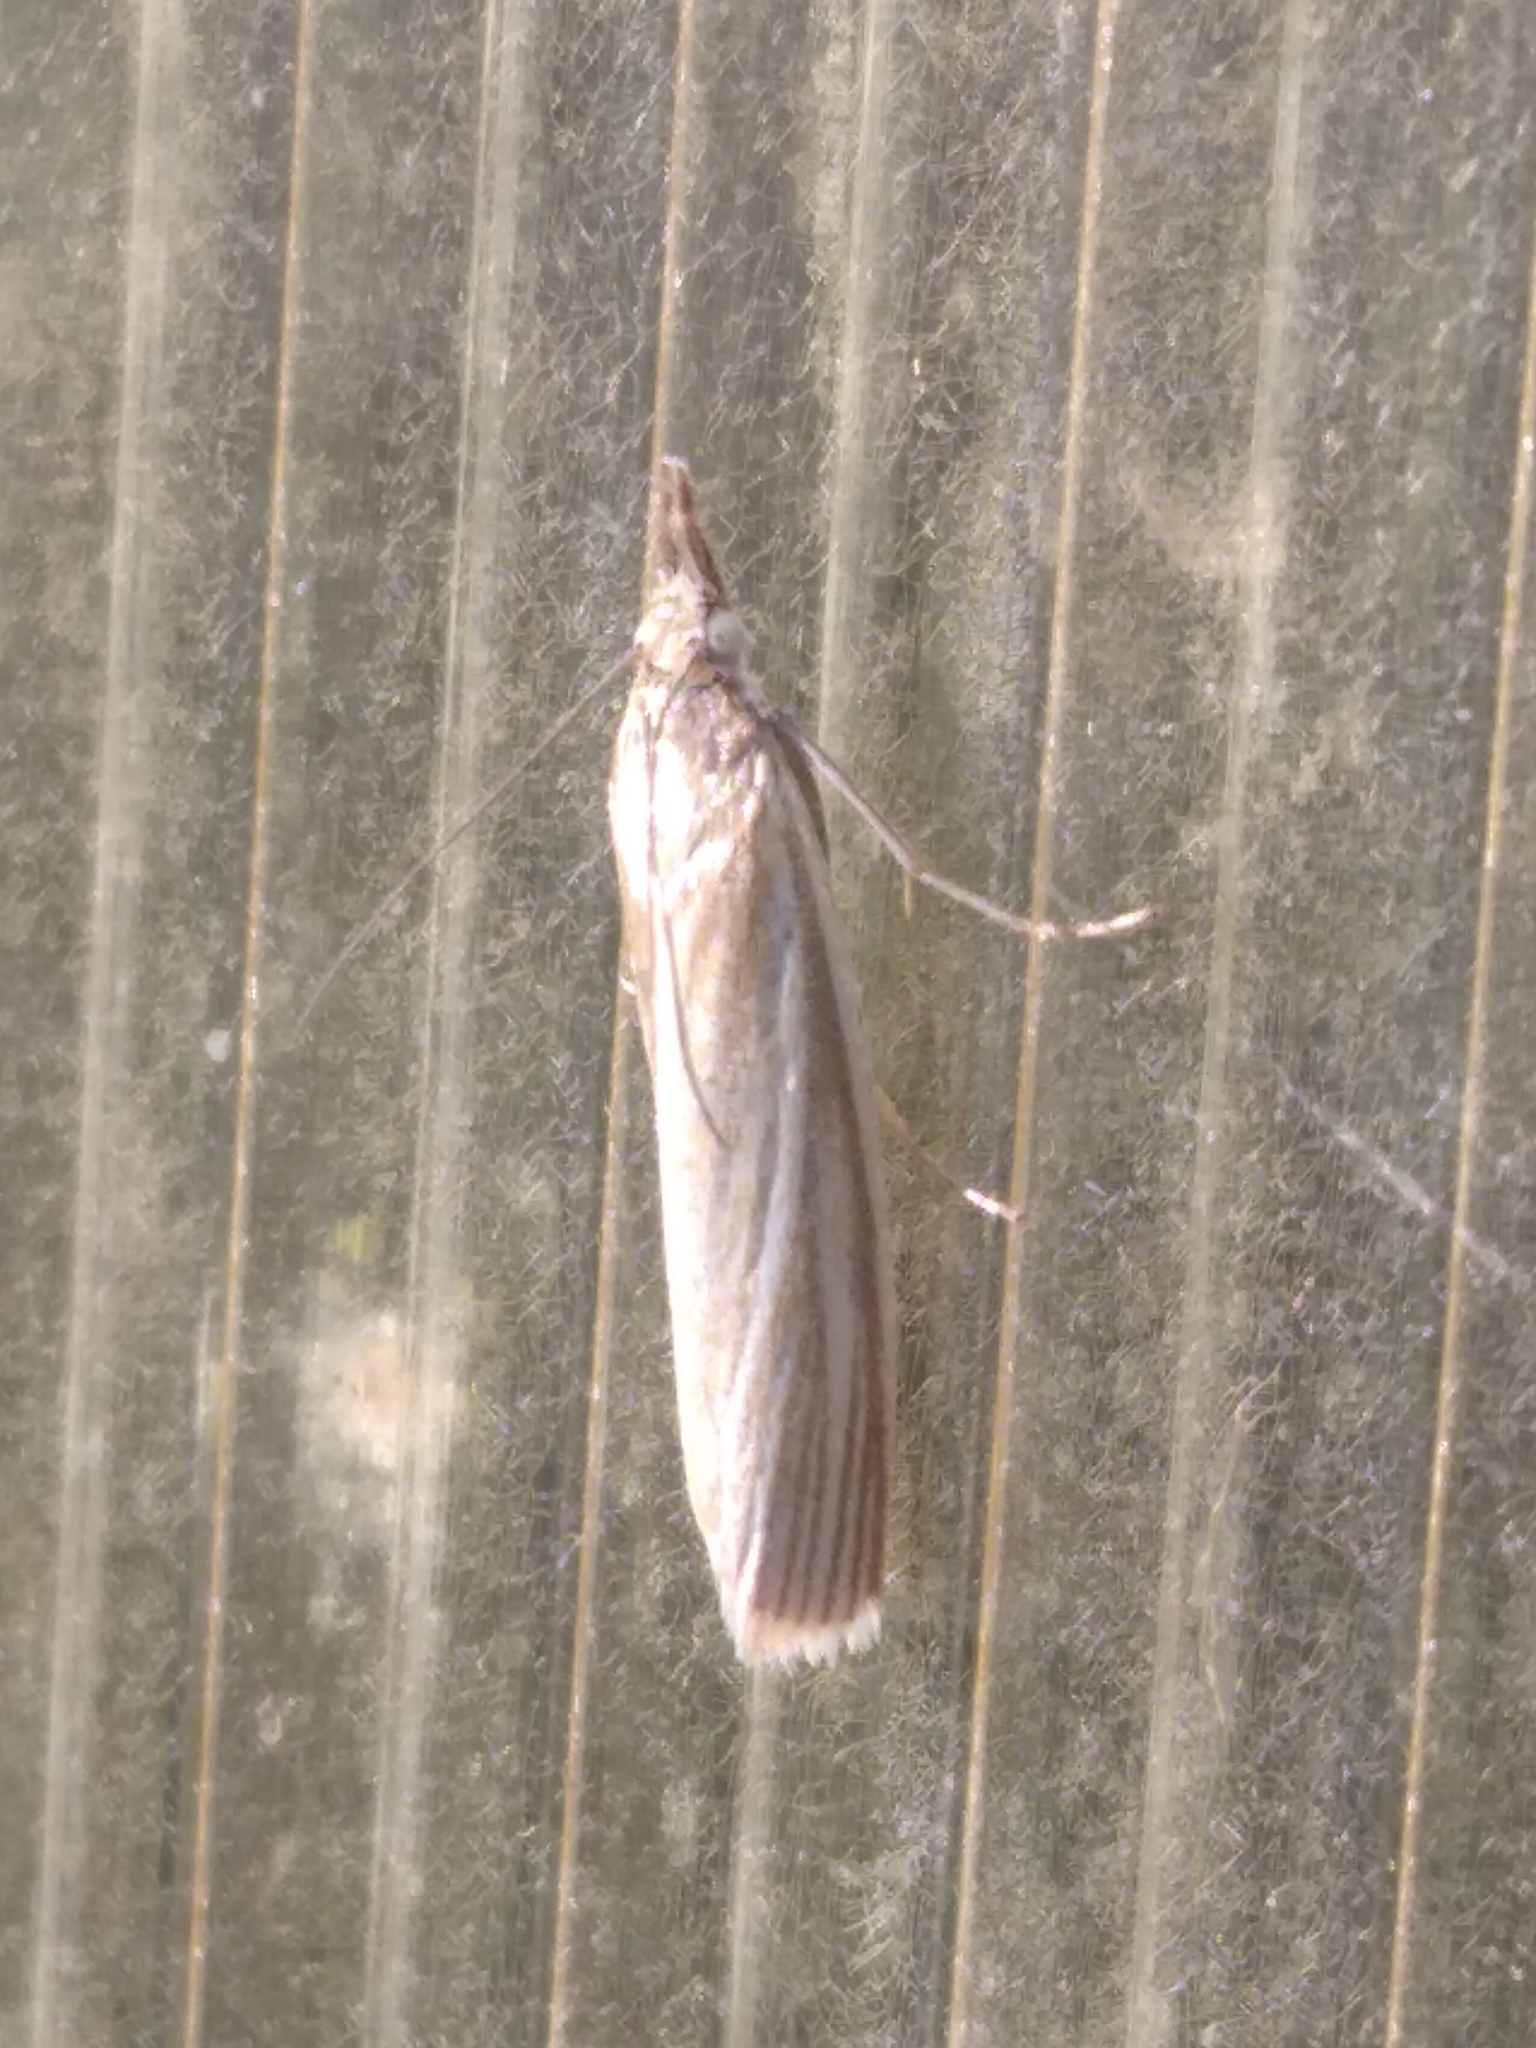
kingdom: Animalia
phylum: Arthropoda
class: Insecta
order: Lepidoptera
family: Crambidae
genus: Crambus
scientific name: Crambus perlellus
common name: Yellow satin veneer
